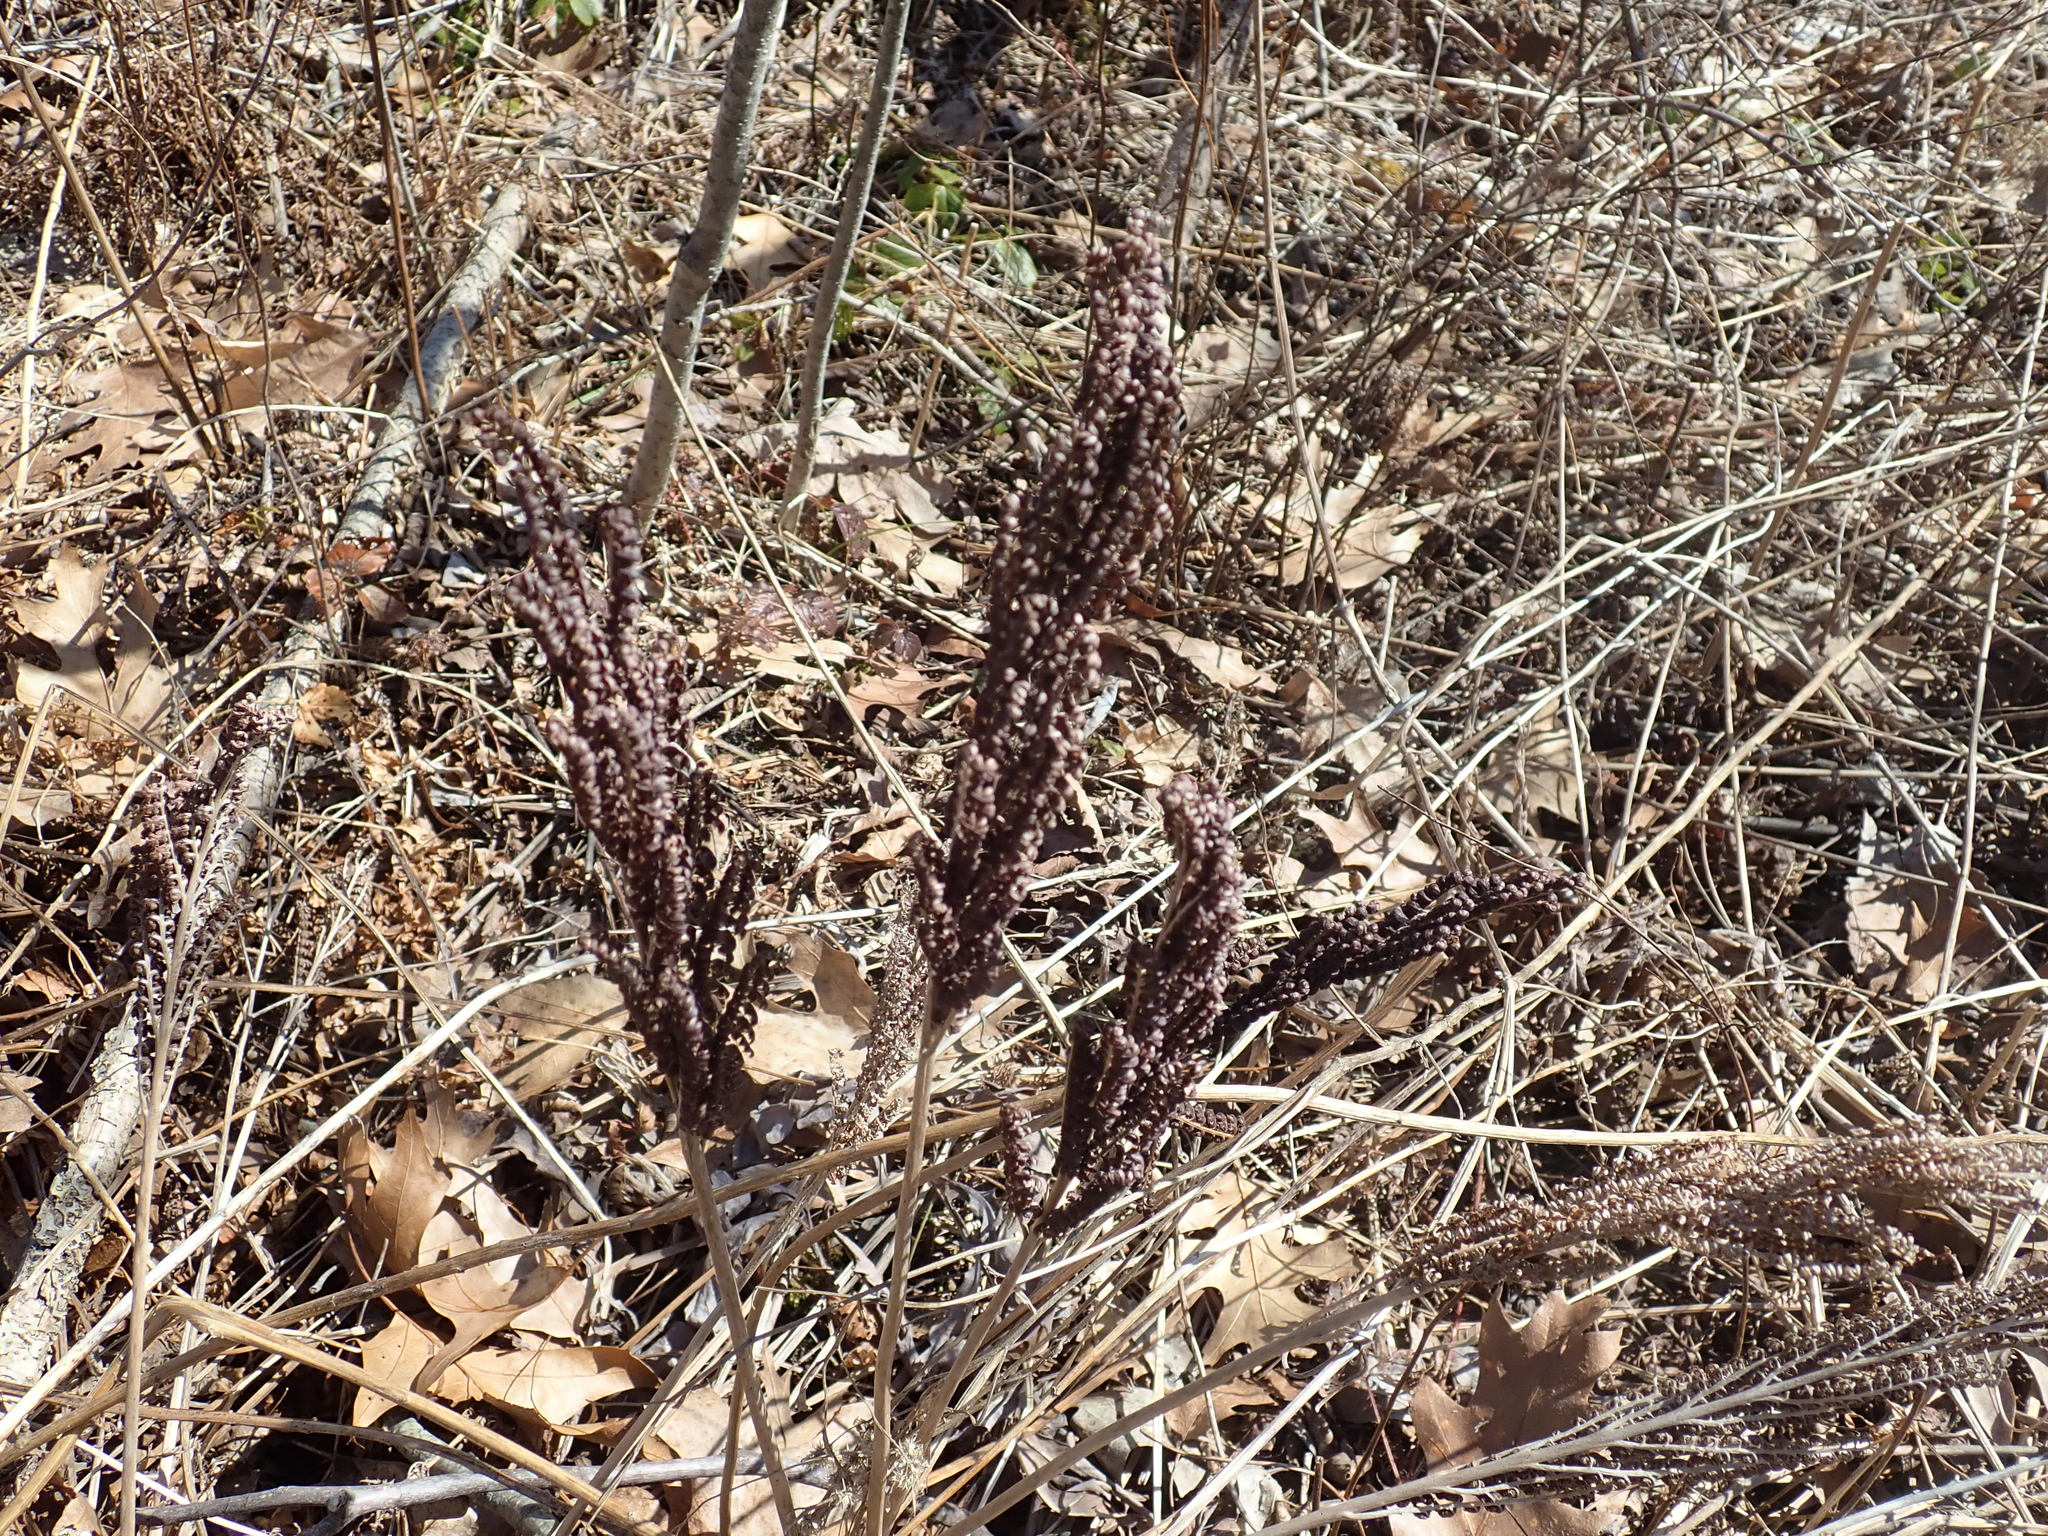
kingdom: Plantae
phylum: Tracheophyta
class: Polypodiopsida
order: Polypodiales
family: Onocleaceae
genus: Onoclea
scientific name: Onoclea sensibilis
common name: Sensitive fern
